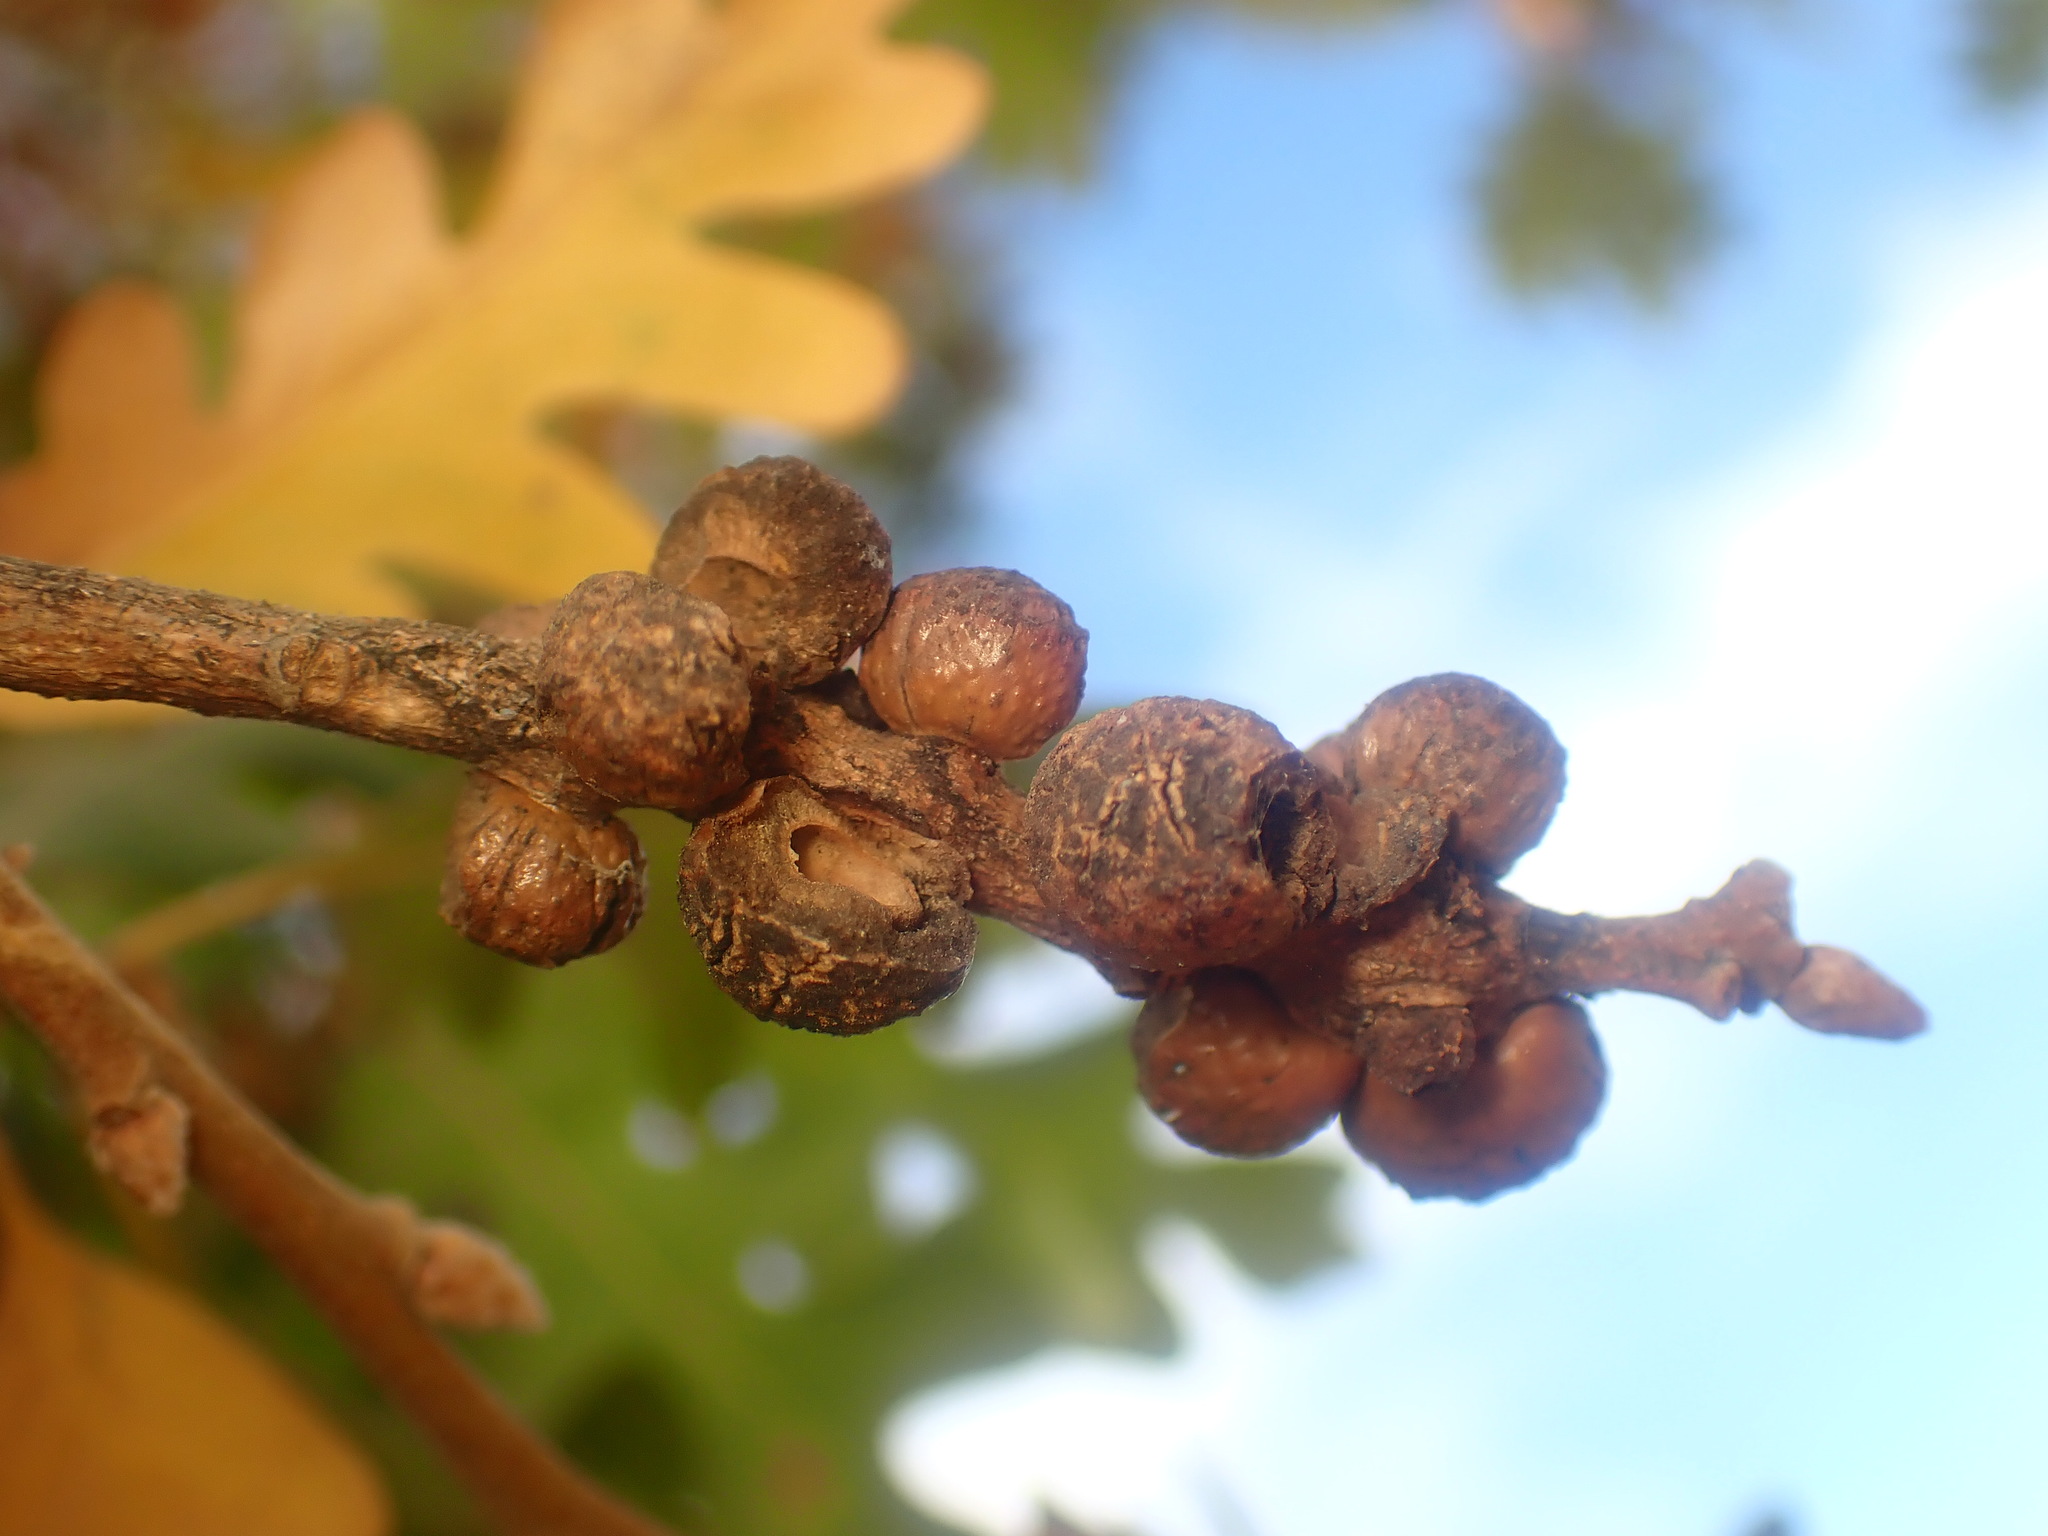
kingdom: Animalia
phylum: Arthropoda
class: Insecta
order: Hymenoptera
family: Cynipidae
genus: Disholcaspis
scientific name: Disholcaspis
